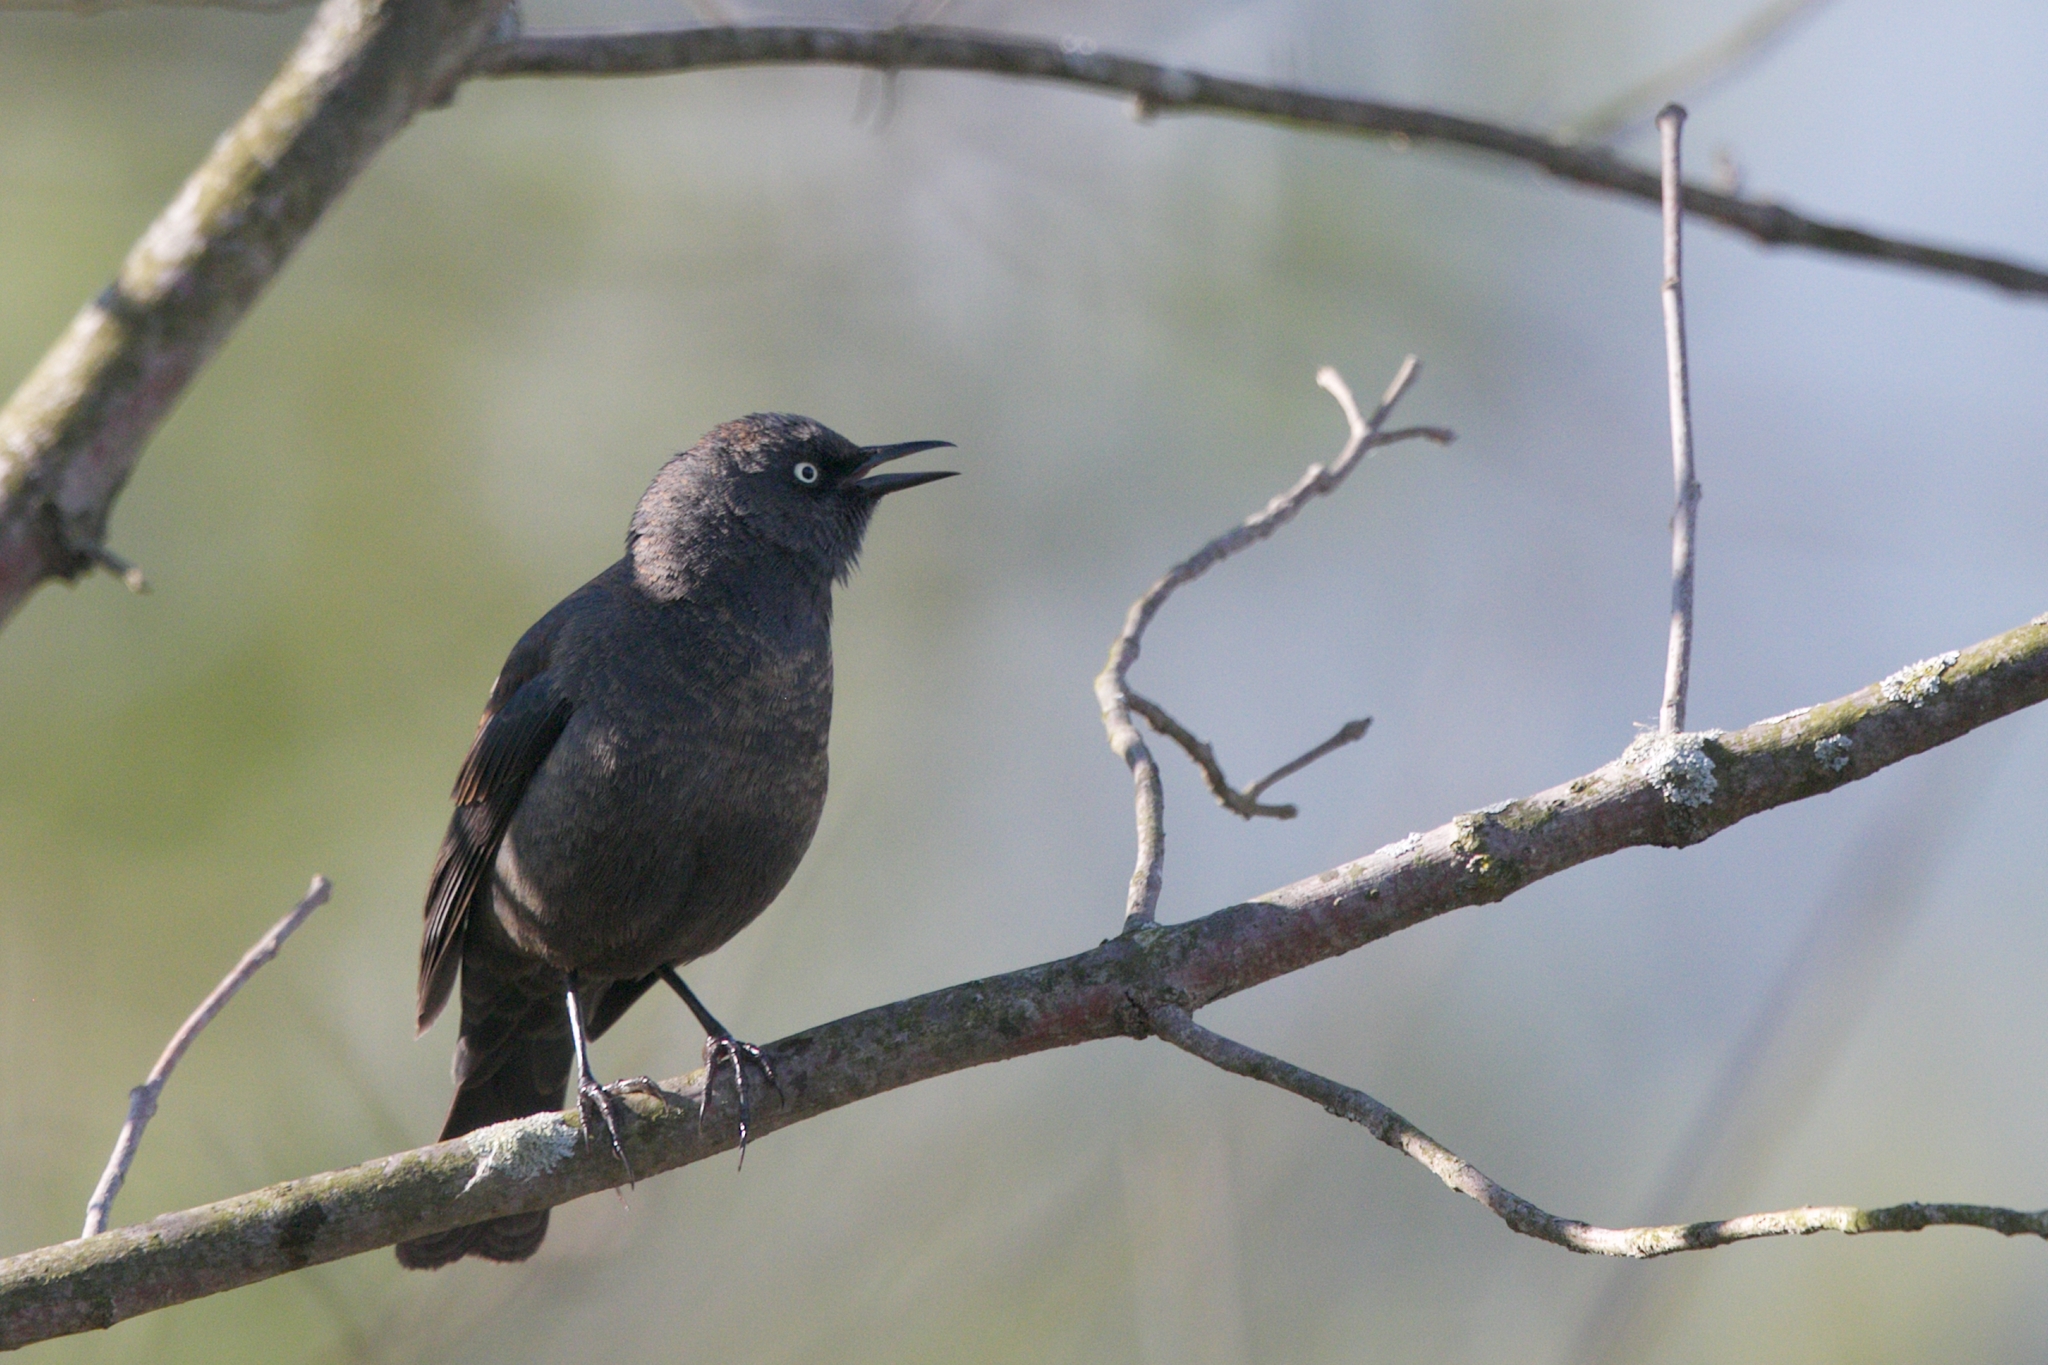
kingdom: Animalia
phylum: Chordata
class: Aves
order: Passeriformes
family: Icteridae
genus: Euphagus
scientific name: Euphagus carolinus
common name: Rusty blackbird
